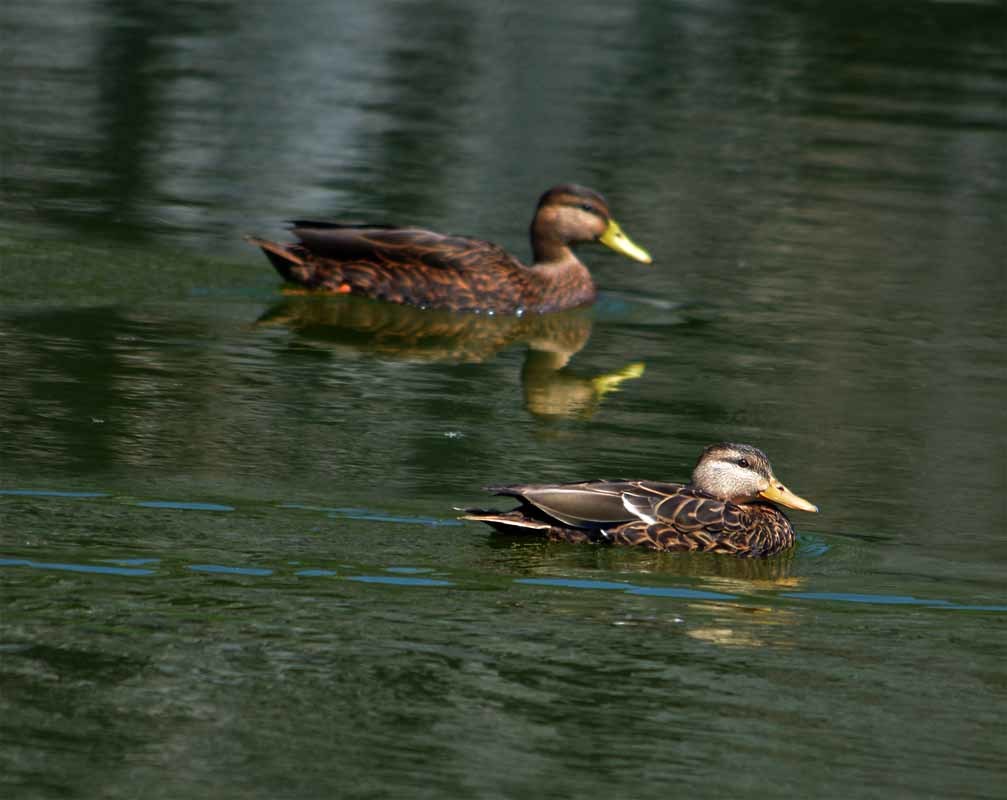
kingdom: Animalia
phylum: Chordata
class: Aves
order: Anseriformes
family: Anatidae
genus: Anas
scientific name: Anas diazi
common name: Mexican duck
